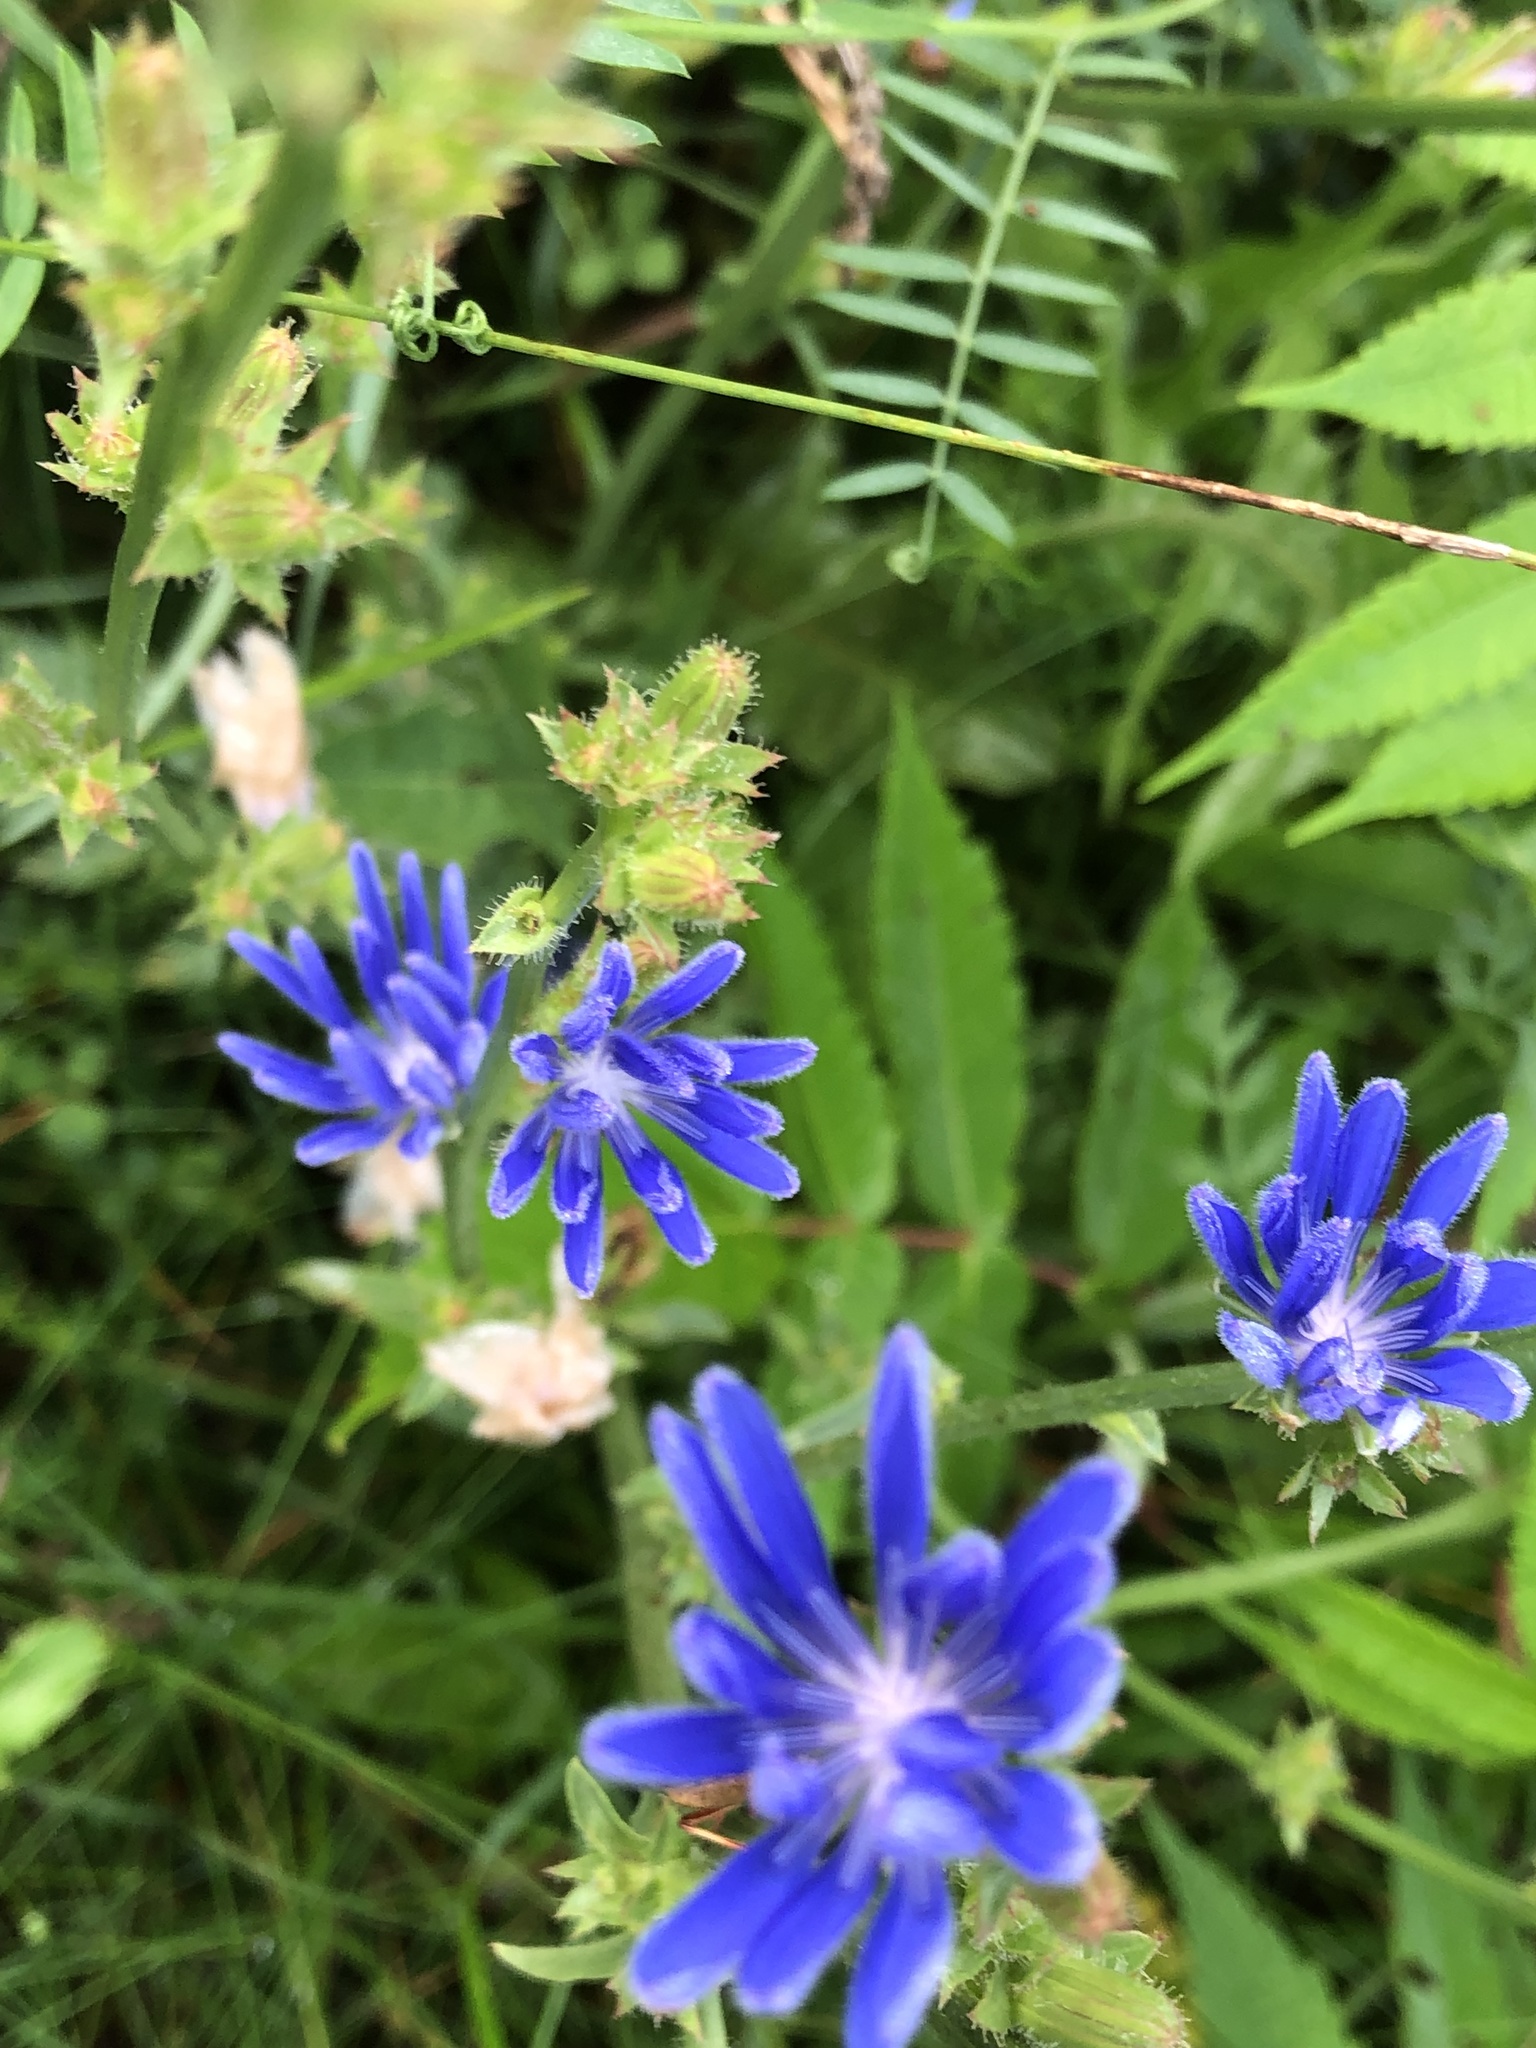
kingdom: Plantae
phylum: Tracheophyta
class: Magnoliopsida
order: Asterales
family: Asteraceae
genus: Cichorium
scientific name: Cichorium intybus
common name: Chicory
